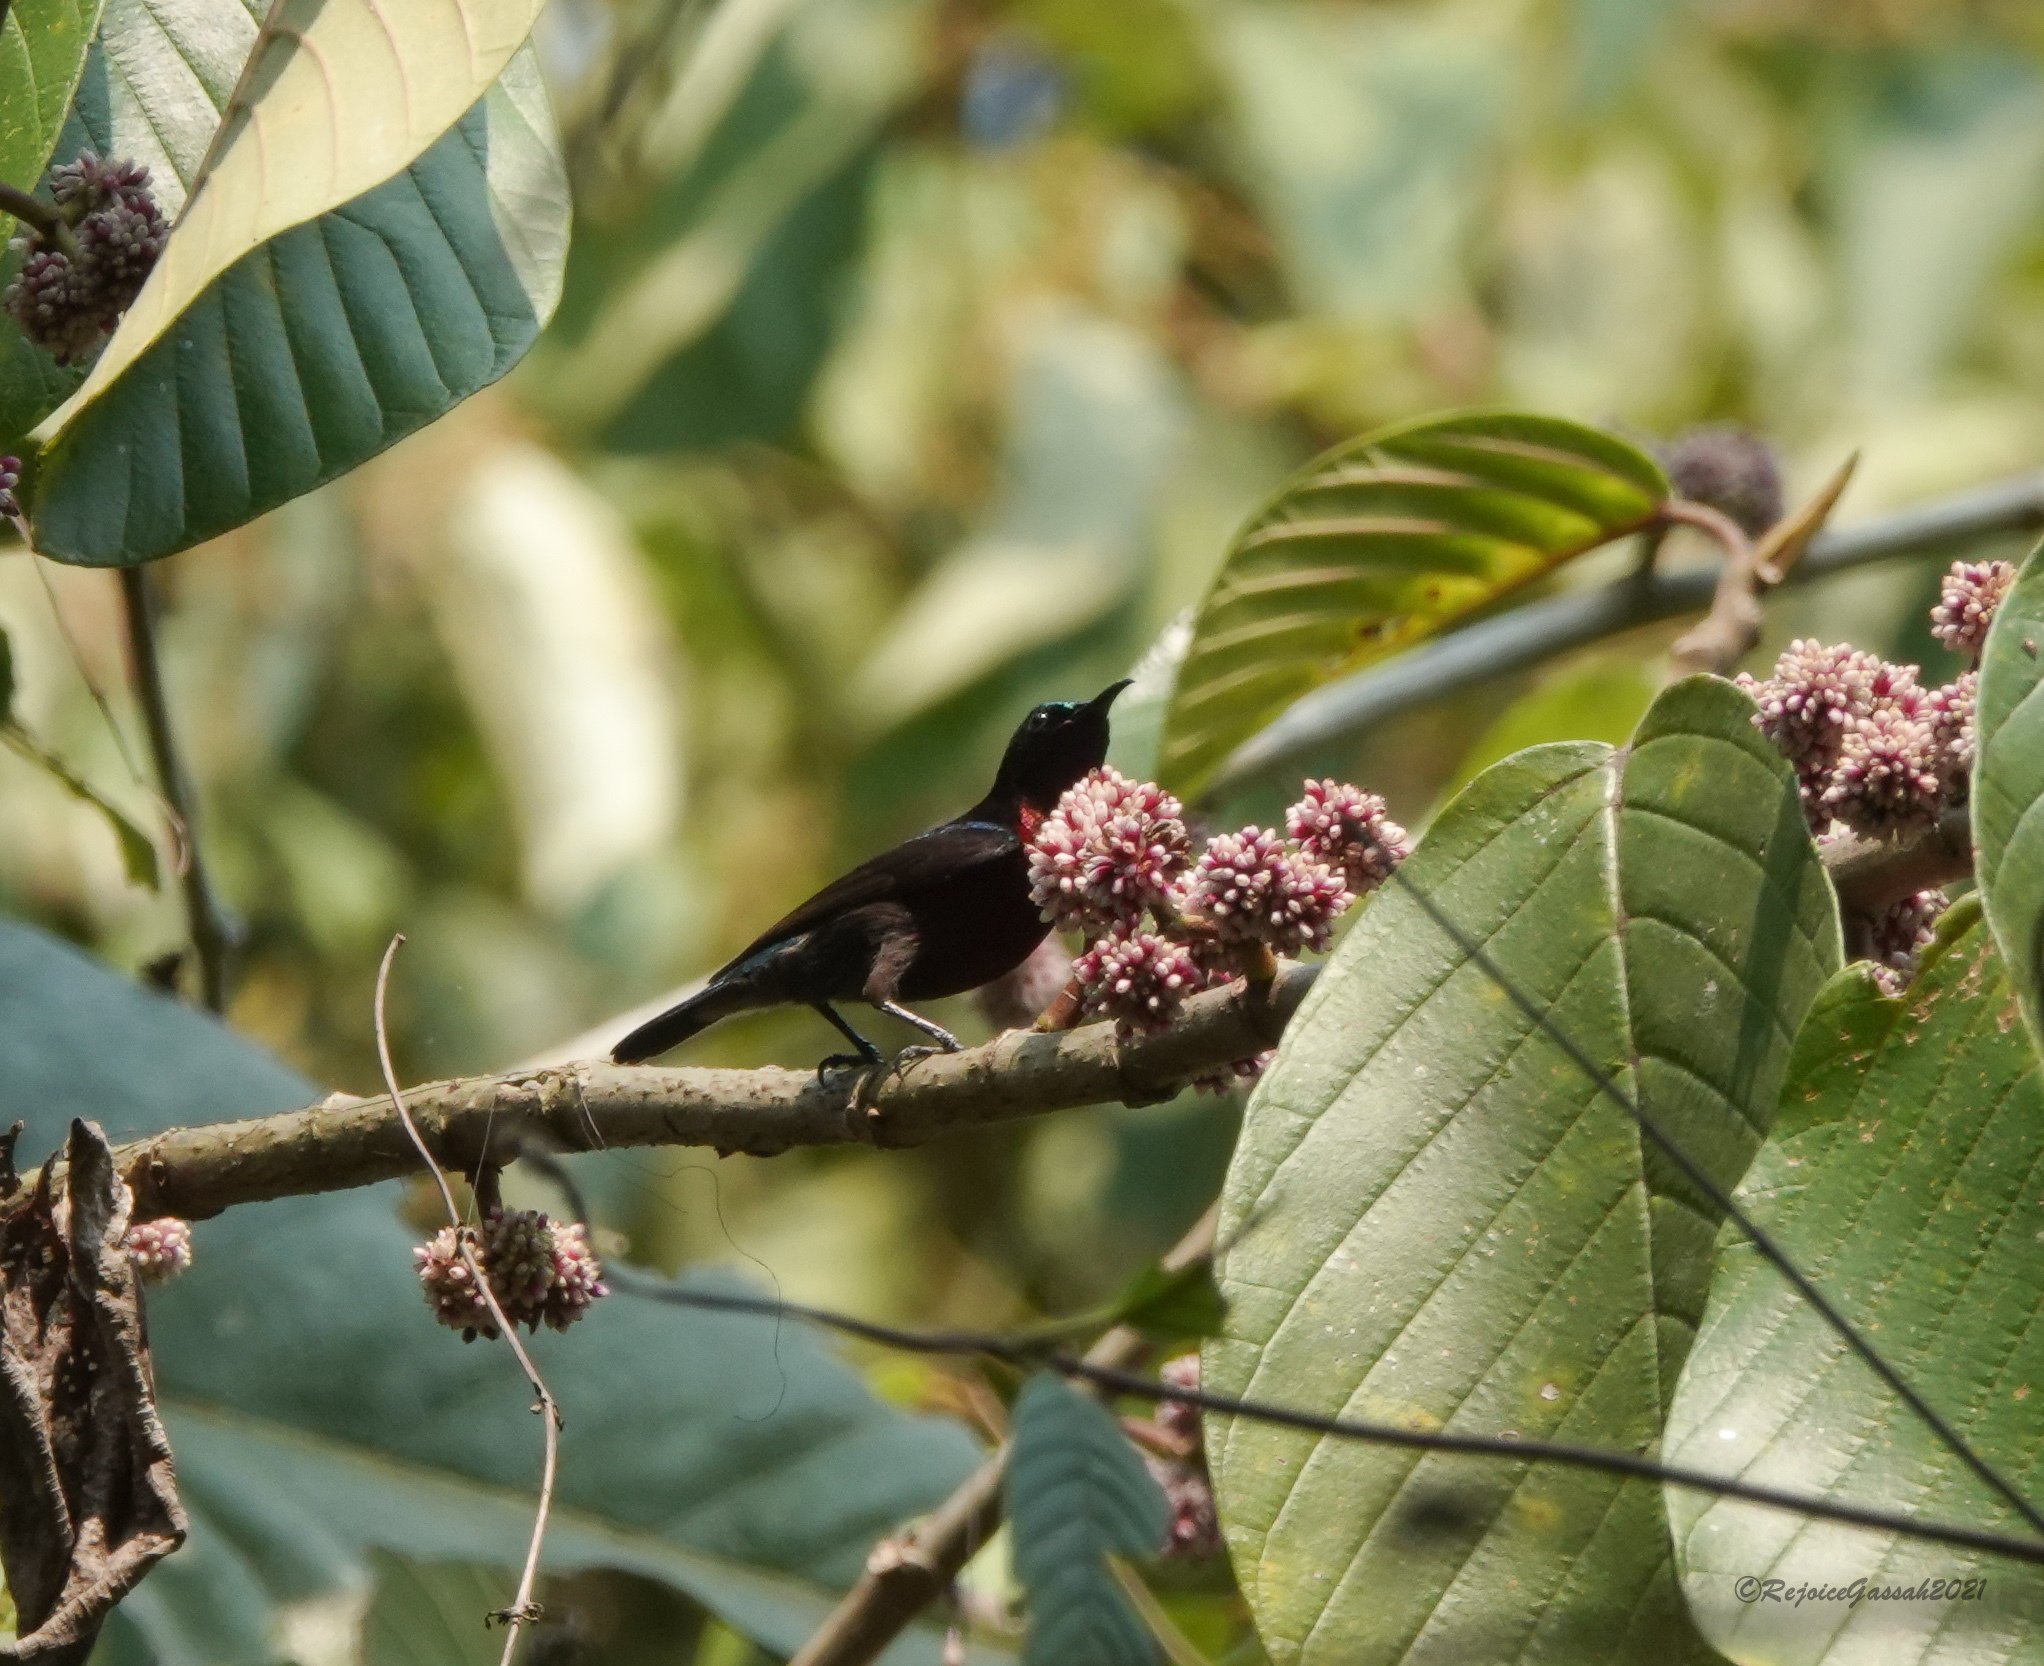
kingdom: Animalia
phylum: Chordata
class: Aves
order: Passeriformes
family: Nectariniidae
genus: Leptocoma
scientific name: Leptocoma brasiliana
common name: Van hasselt's sunbird
